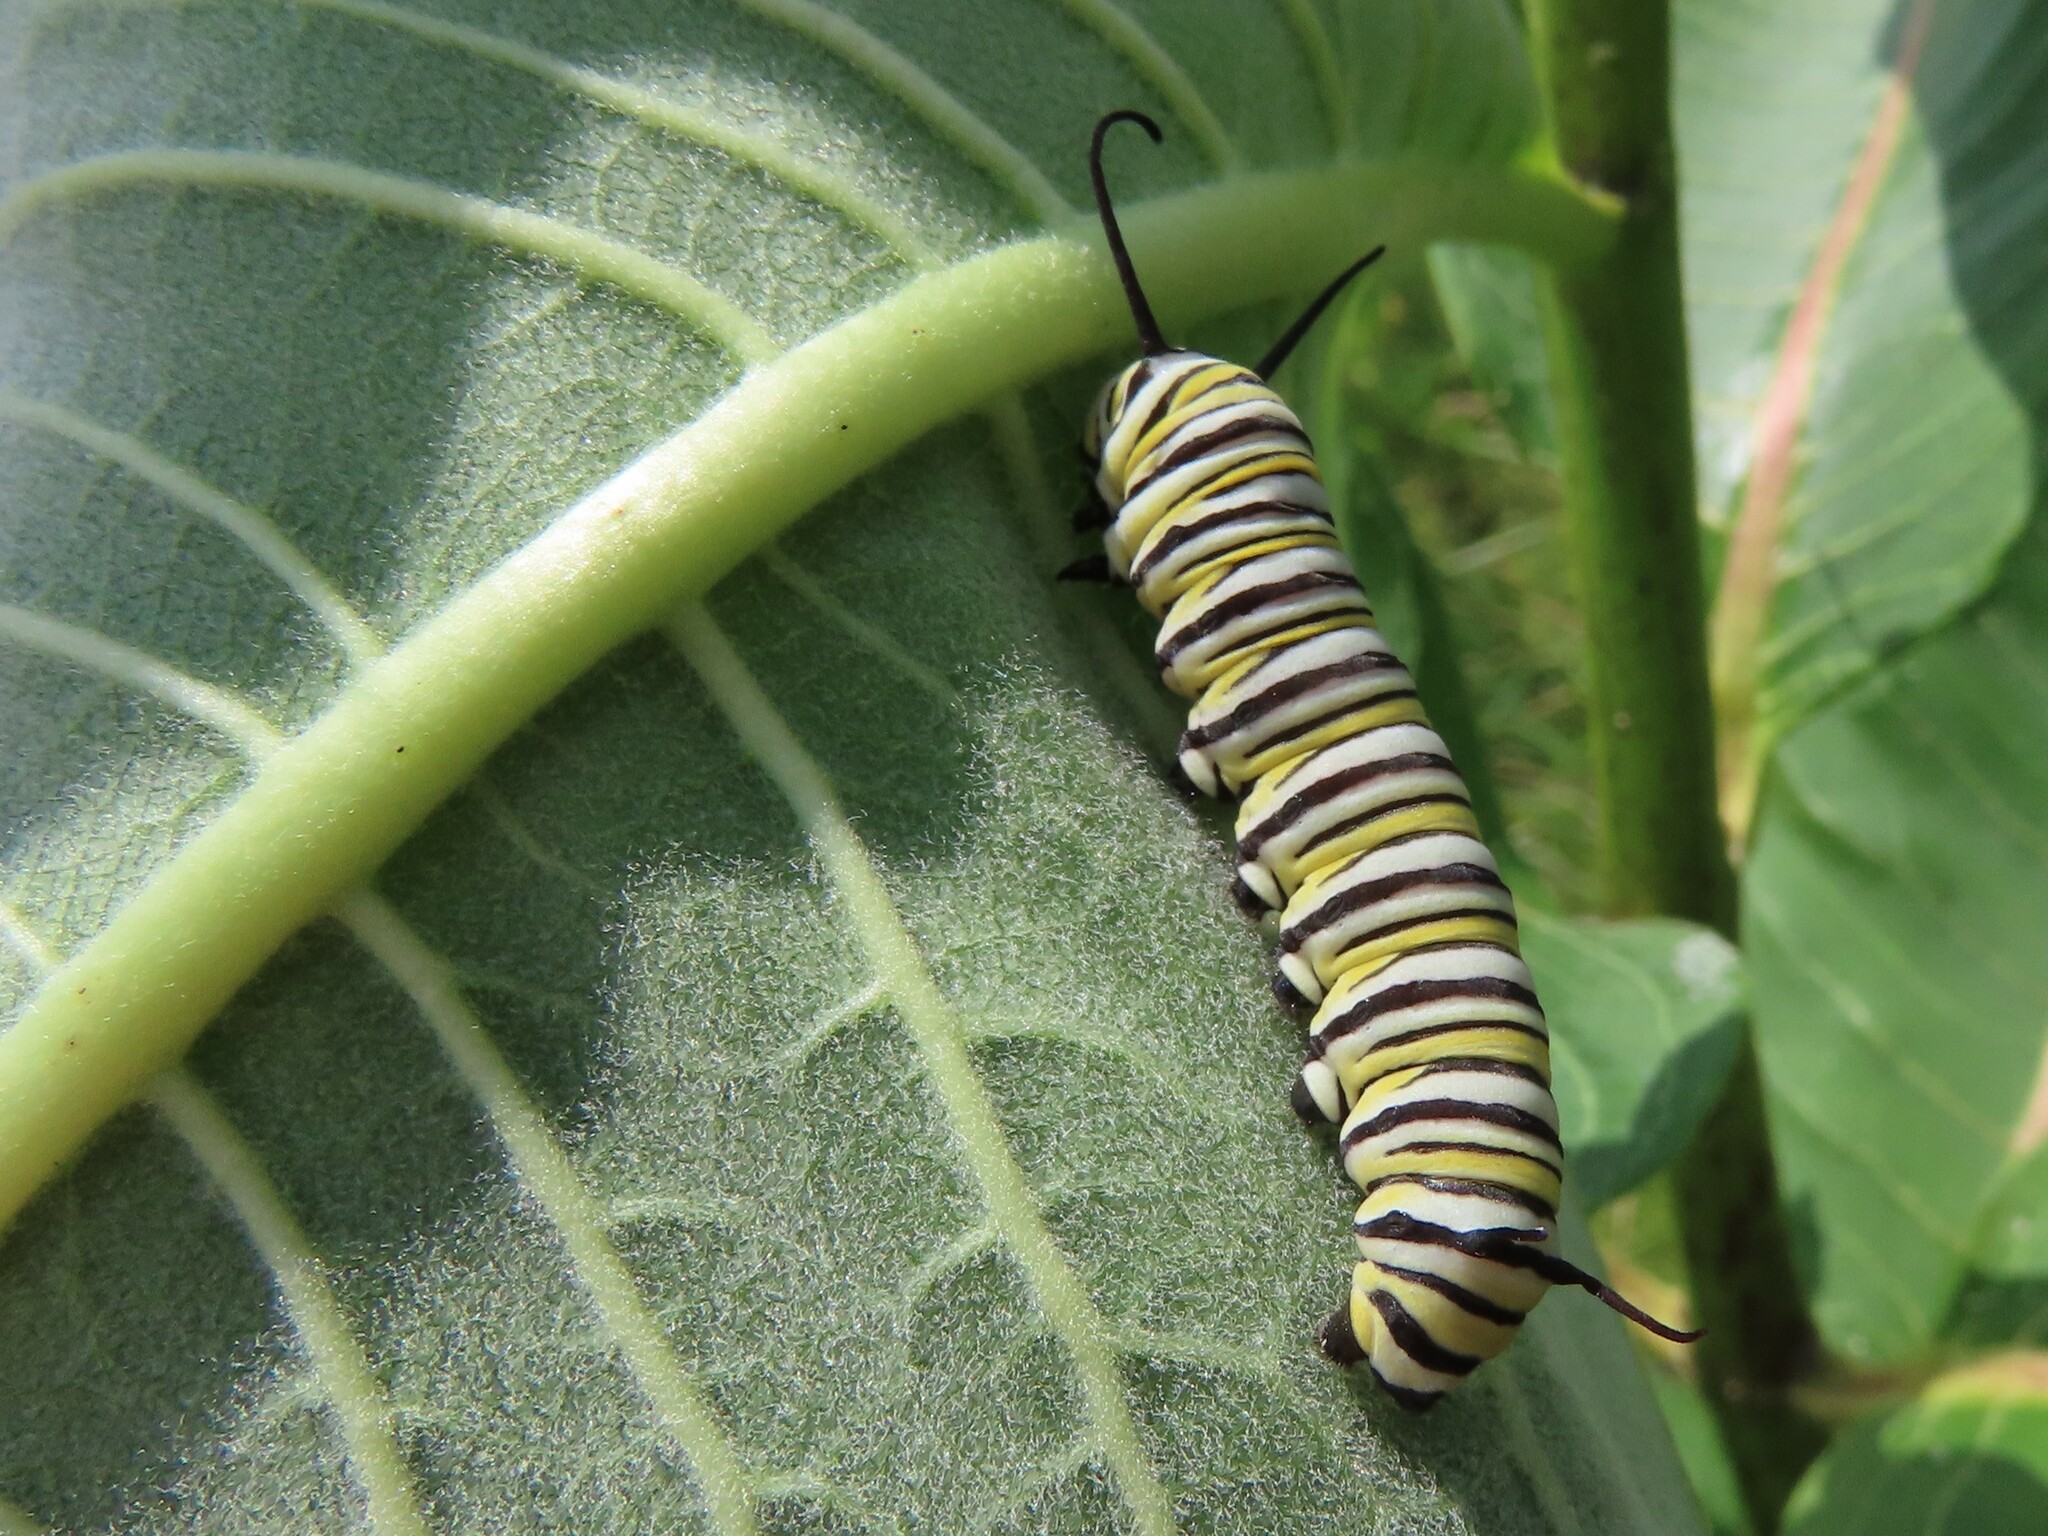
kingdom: Animalia
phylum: Arthropoda
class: Insecta
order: Lepidoptera
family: Nymphalidae
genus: Danaus
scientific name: Danaus plexippus
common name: Monarch
